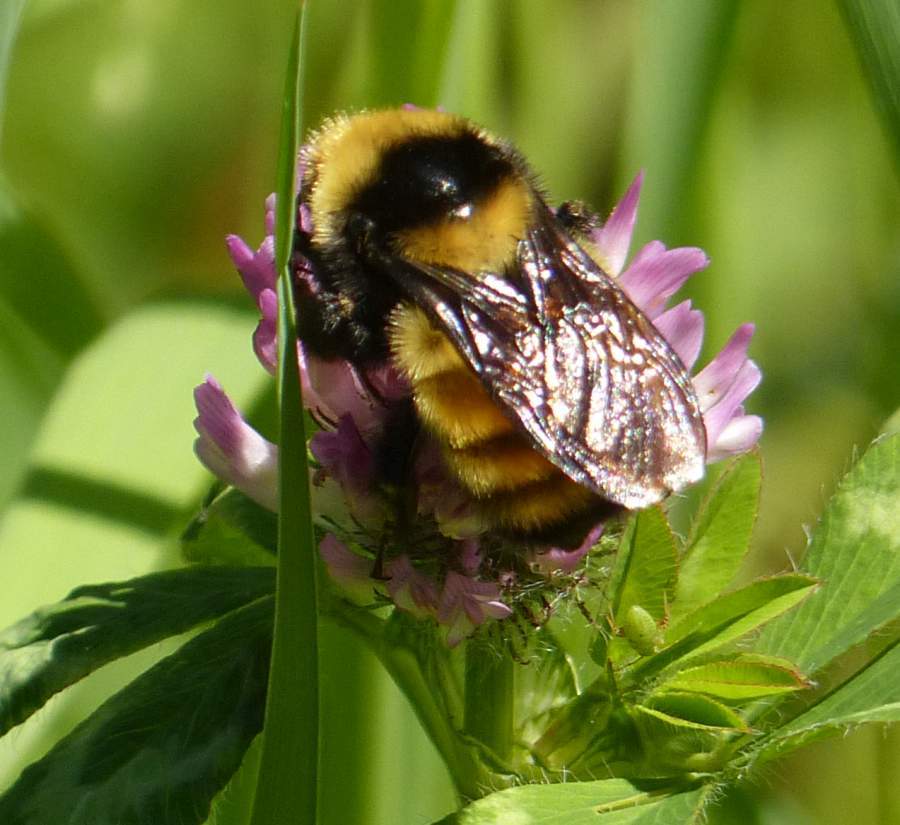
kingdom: Animalia
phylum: Arthropoda
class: Insecta
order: Hymenoptera
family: Apidae
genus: Bombus
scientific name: Bombus borealis
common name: Northern amber bumble bee
